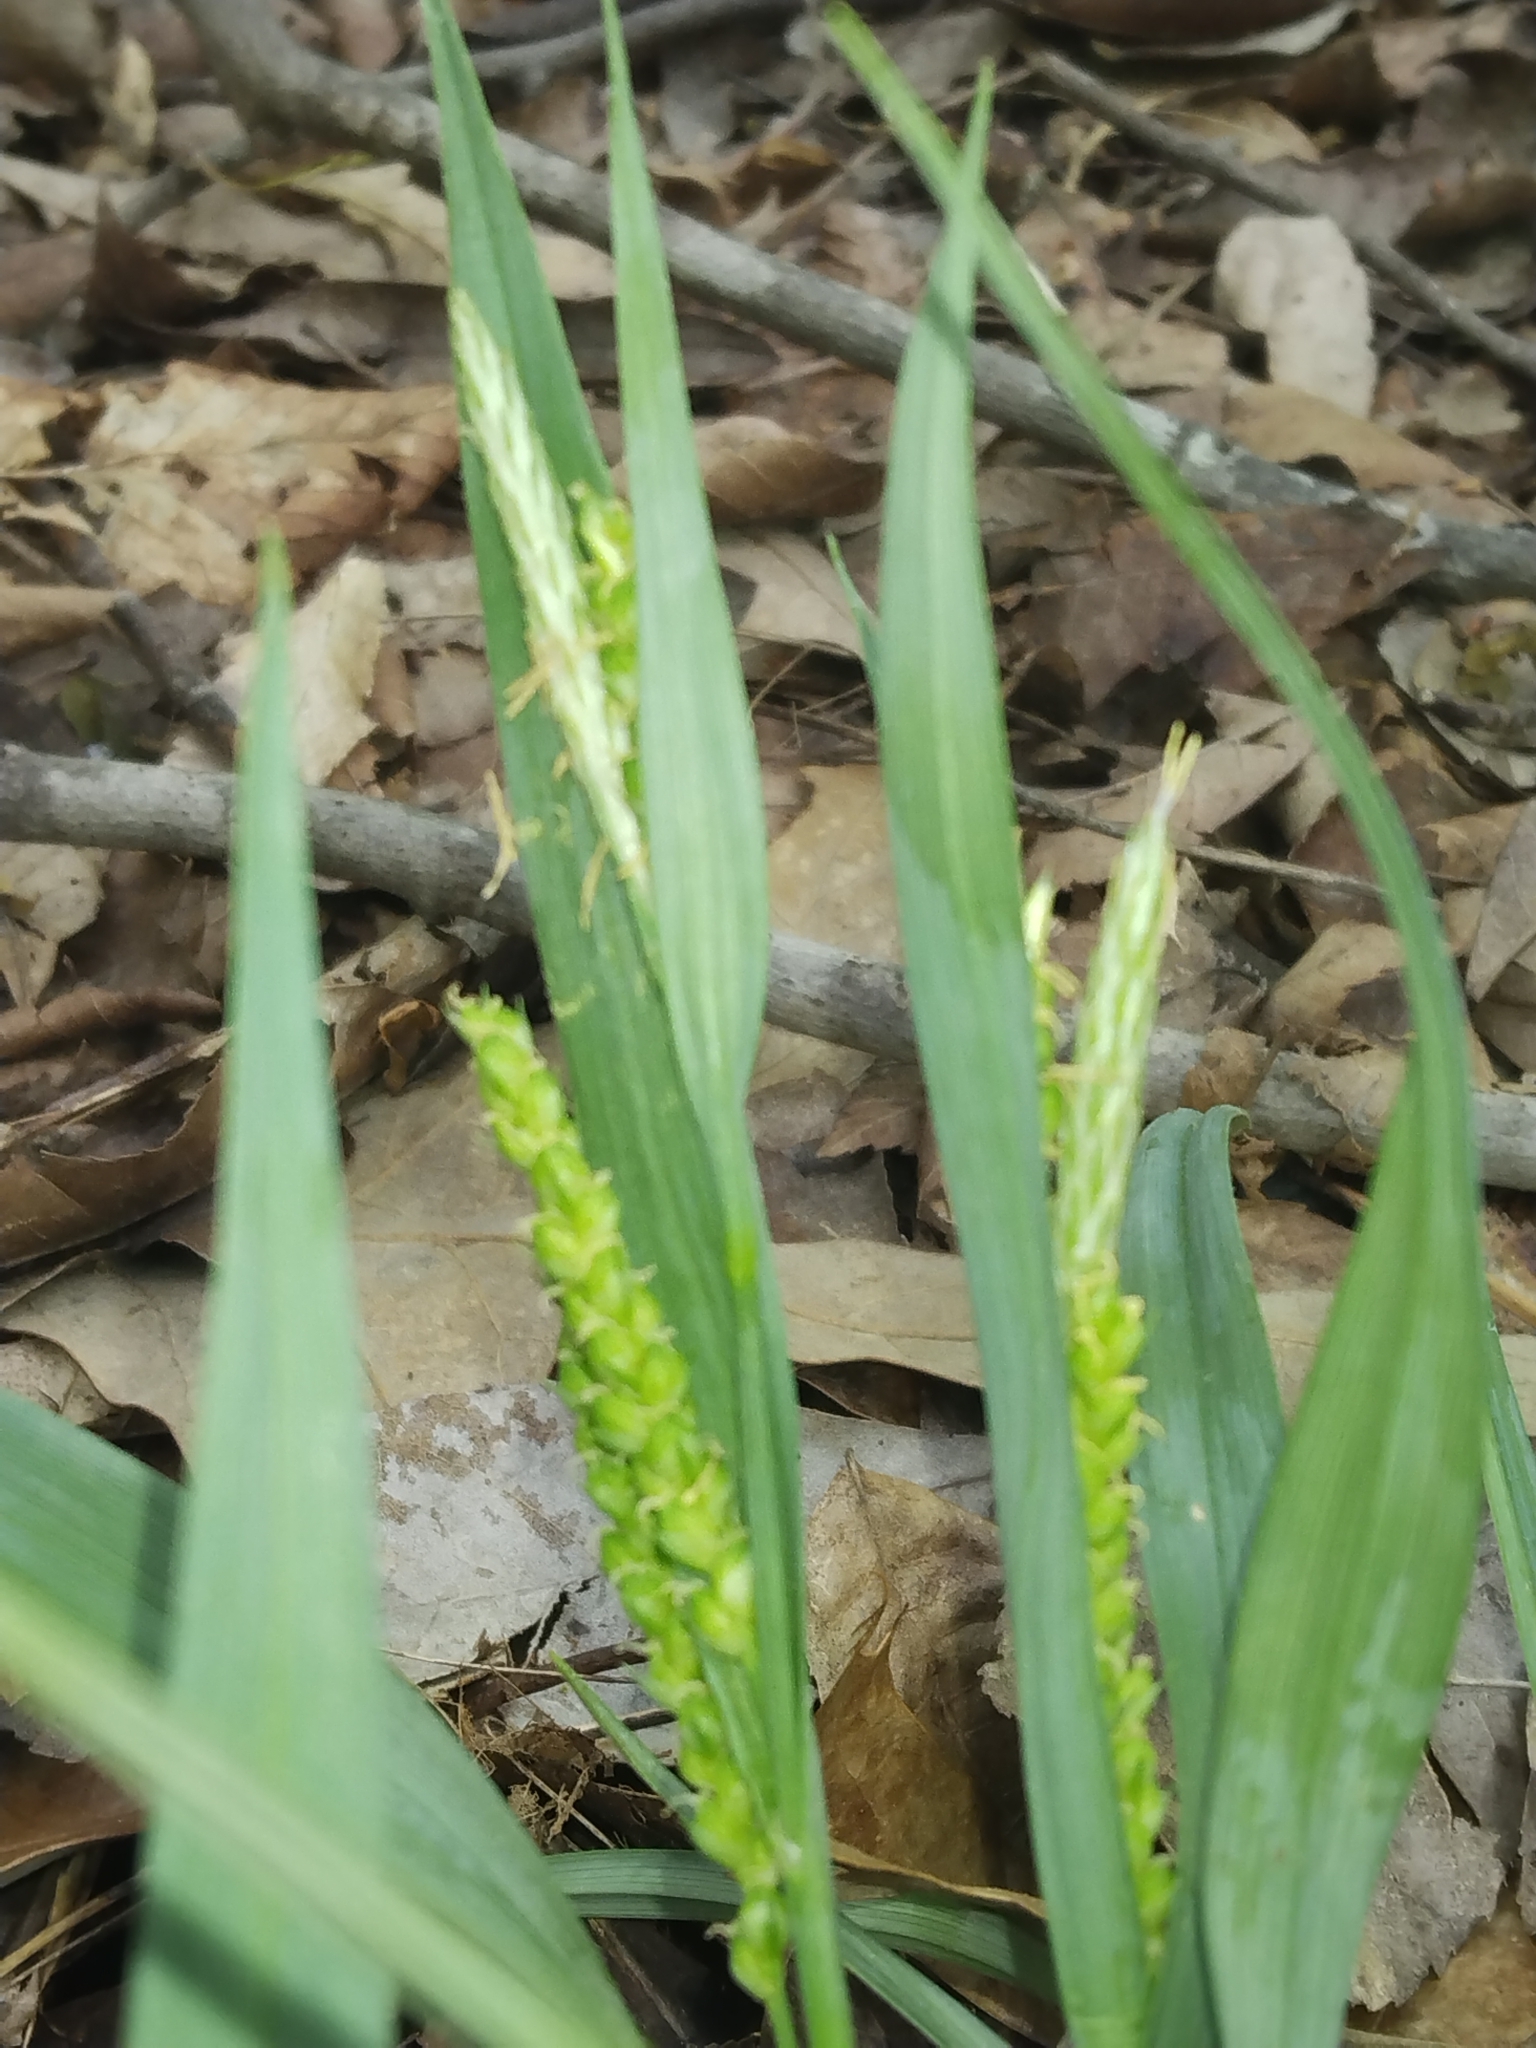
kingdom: Plantae
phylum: Tracheophyta
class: Liliopsida
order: Poales
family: Cyperaceae
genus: Carex
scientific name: Carex glaucodea
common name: Blue sedge
